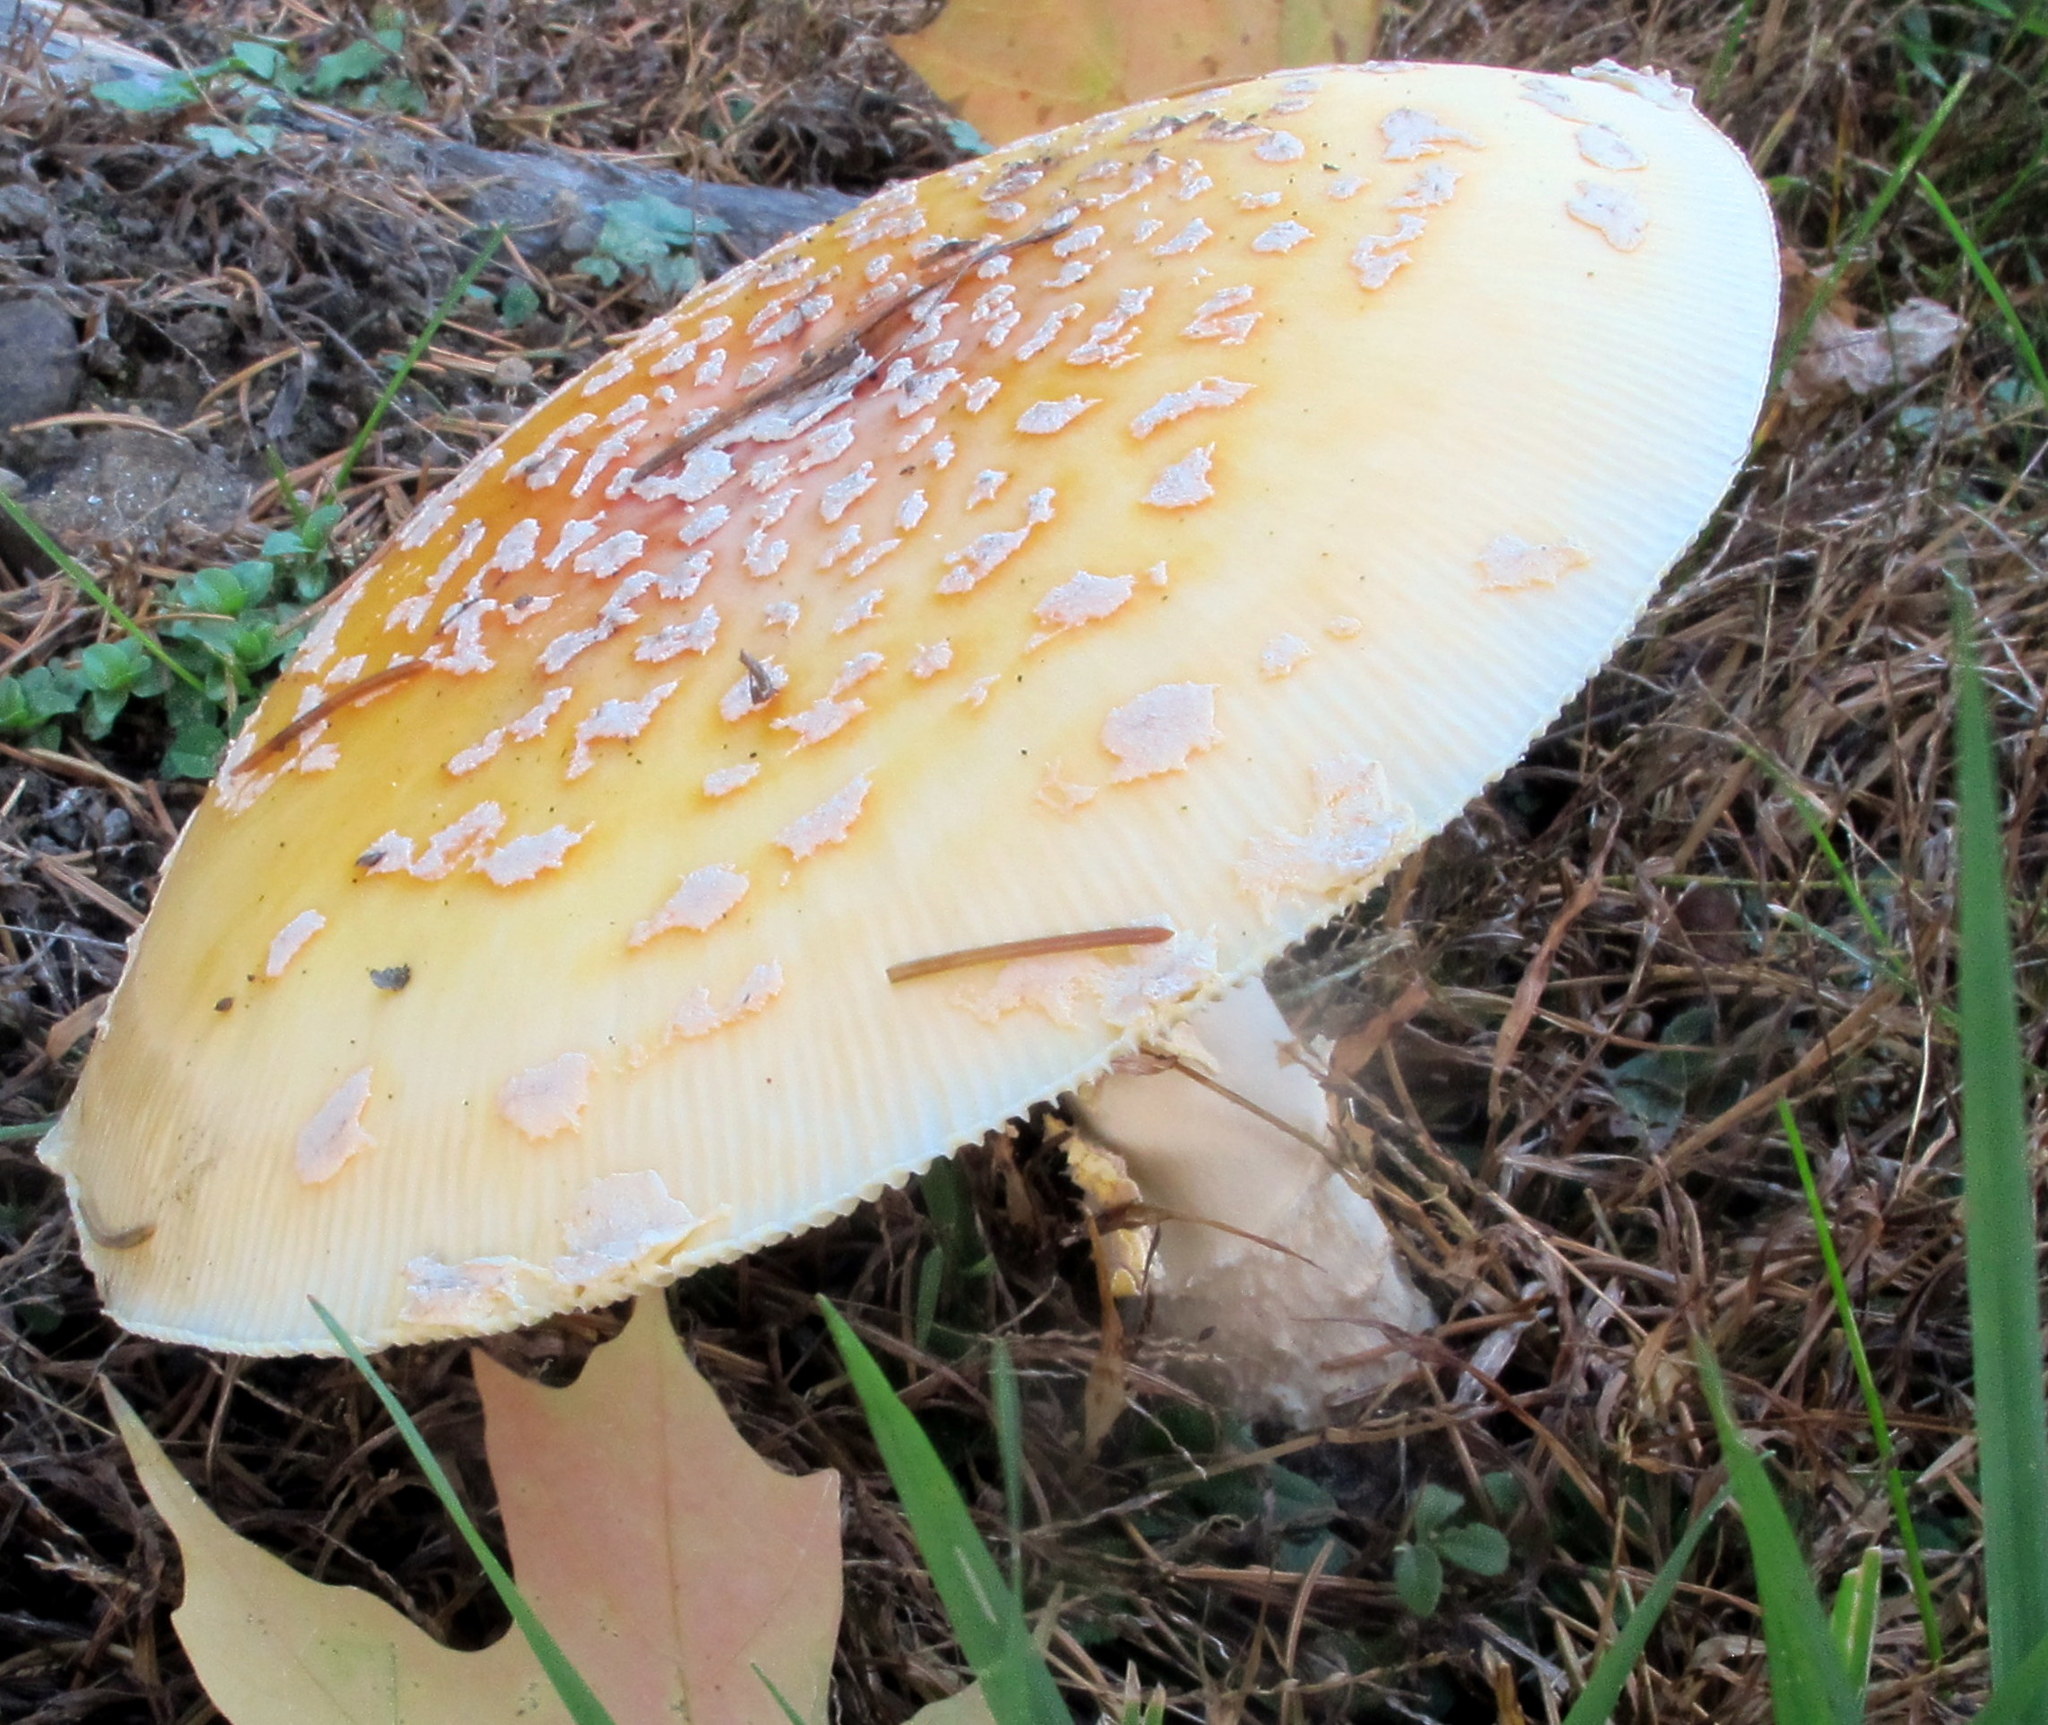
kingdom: Fungi
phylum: Basidiomycota
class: Agaricomycetes
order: Agaricales
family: Amanitaceae
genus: Amanita
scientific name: Amanita muscaria
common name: Fly agaric
